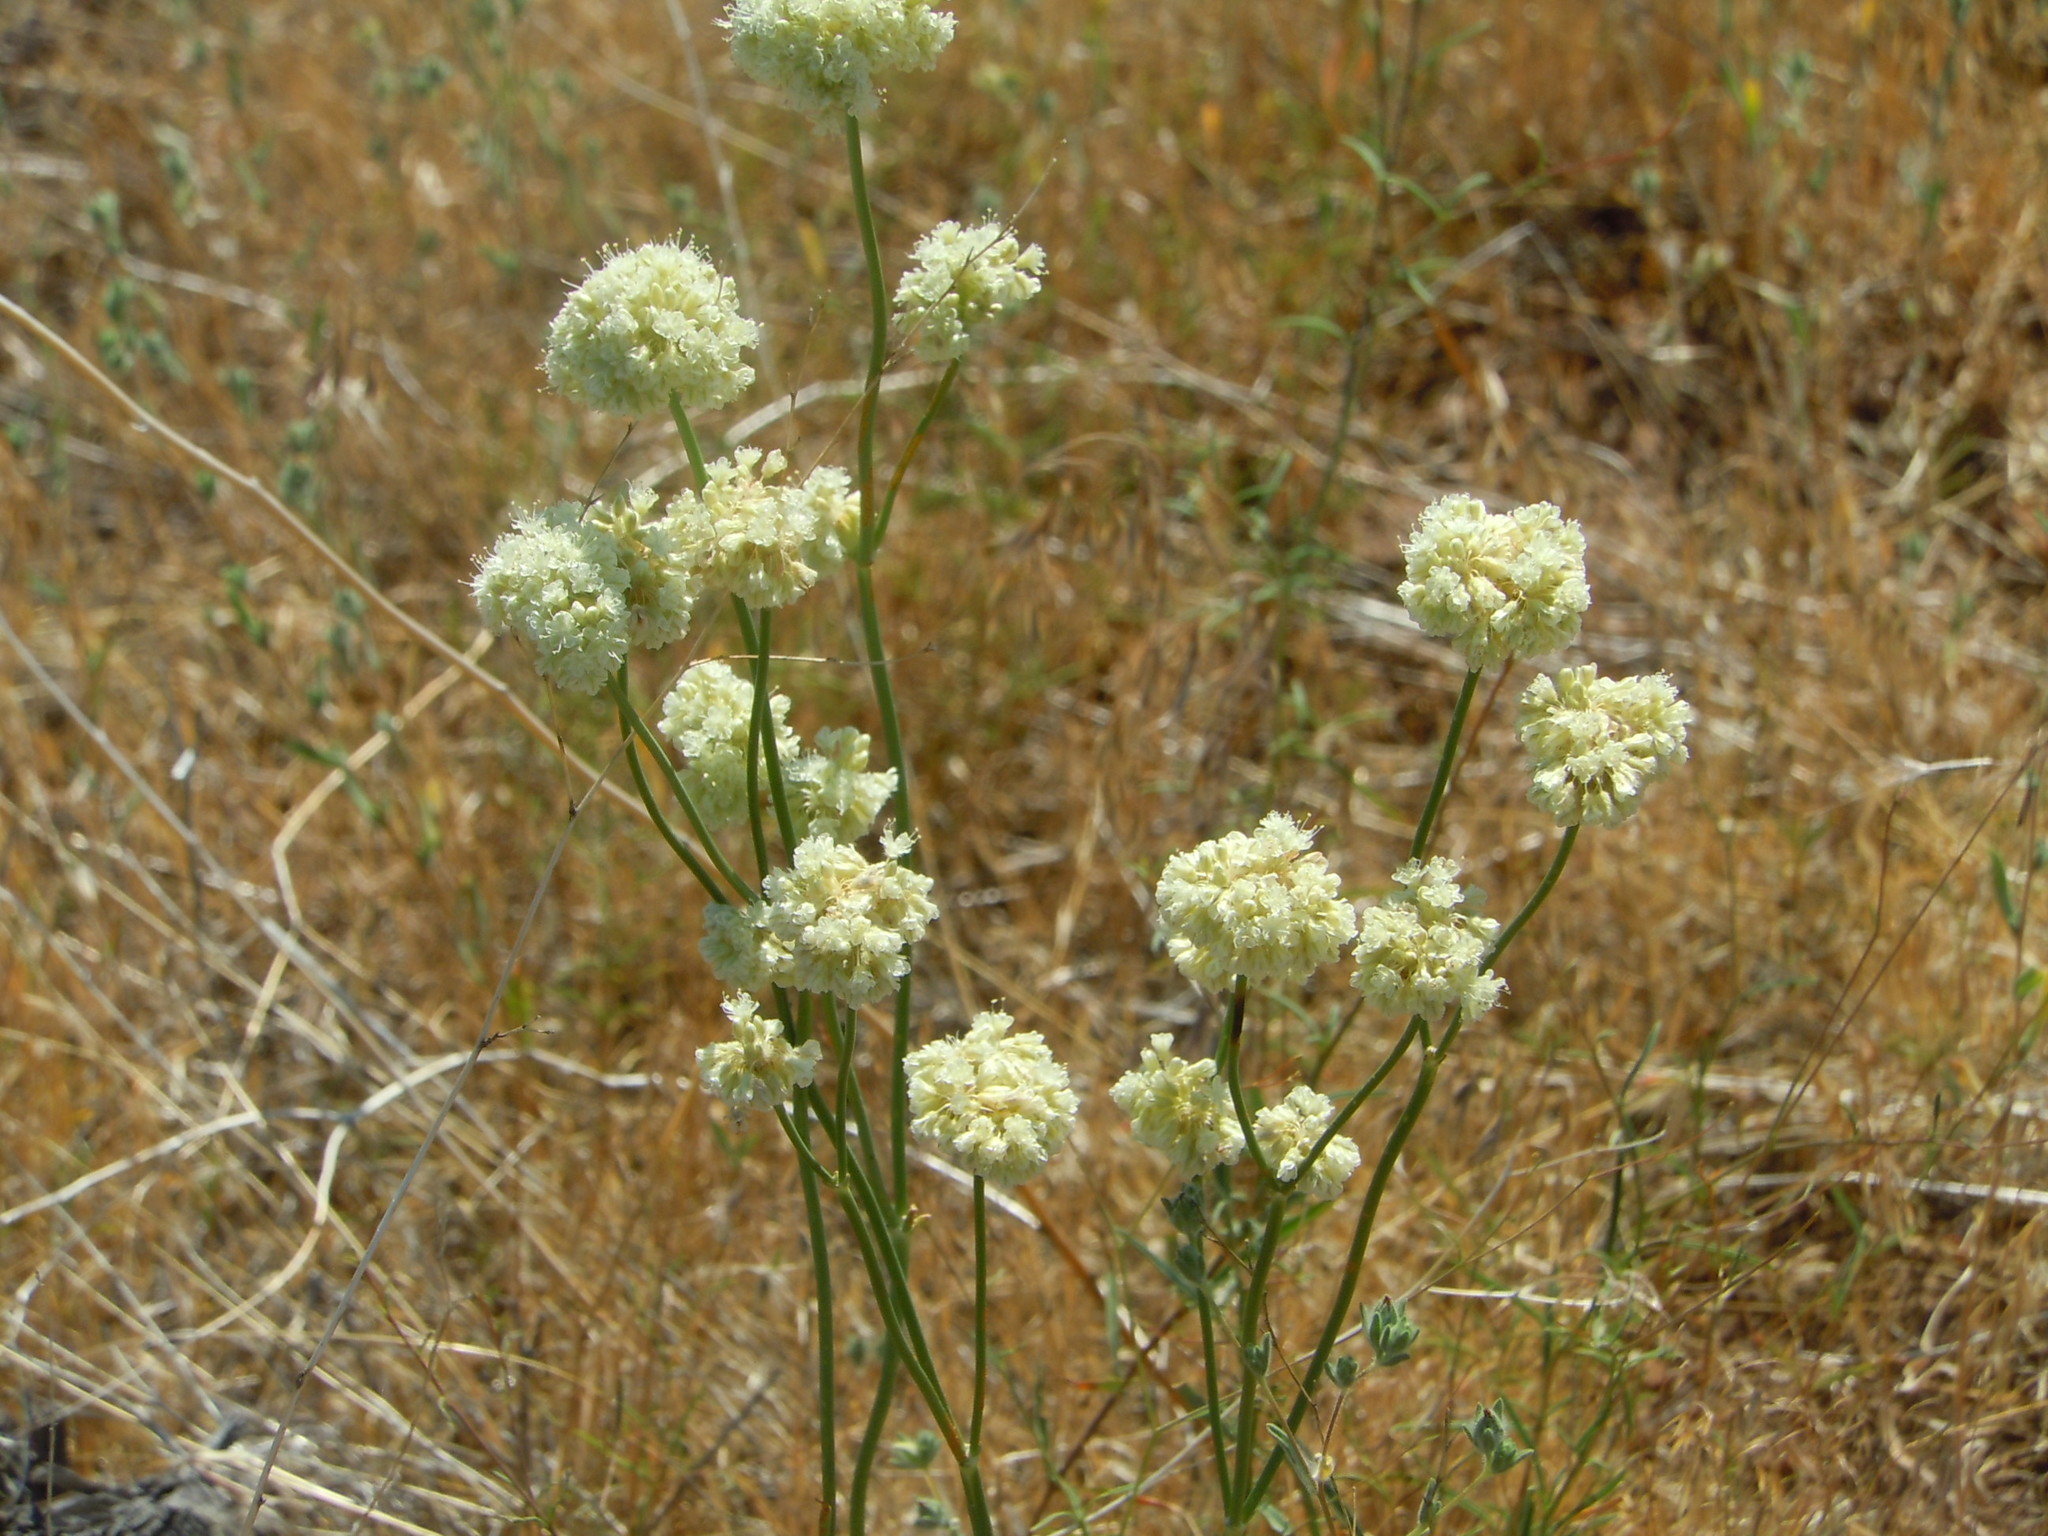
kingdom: Plantae
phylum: Tracheophyta
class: Magnoliopsida
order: Caryophyllales
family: Polygonaceae
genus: Eriogonum
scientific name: Eriogonum nudum
